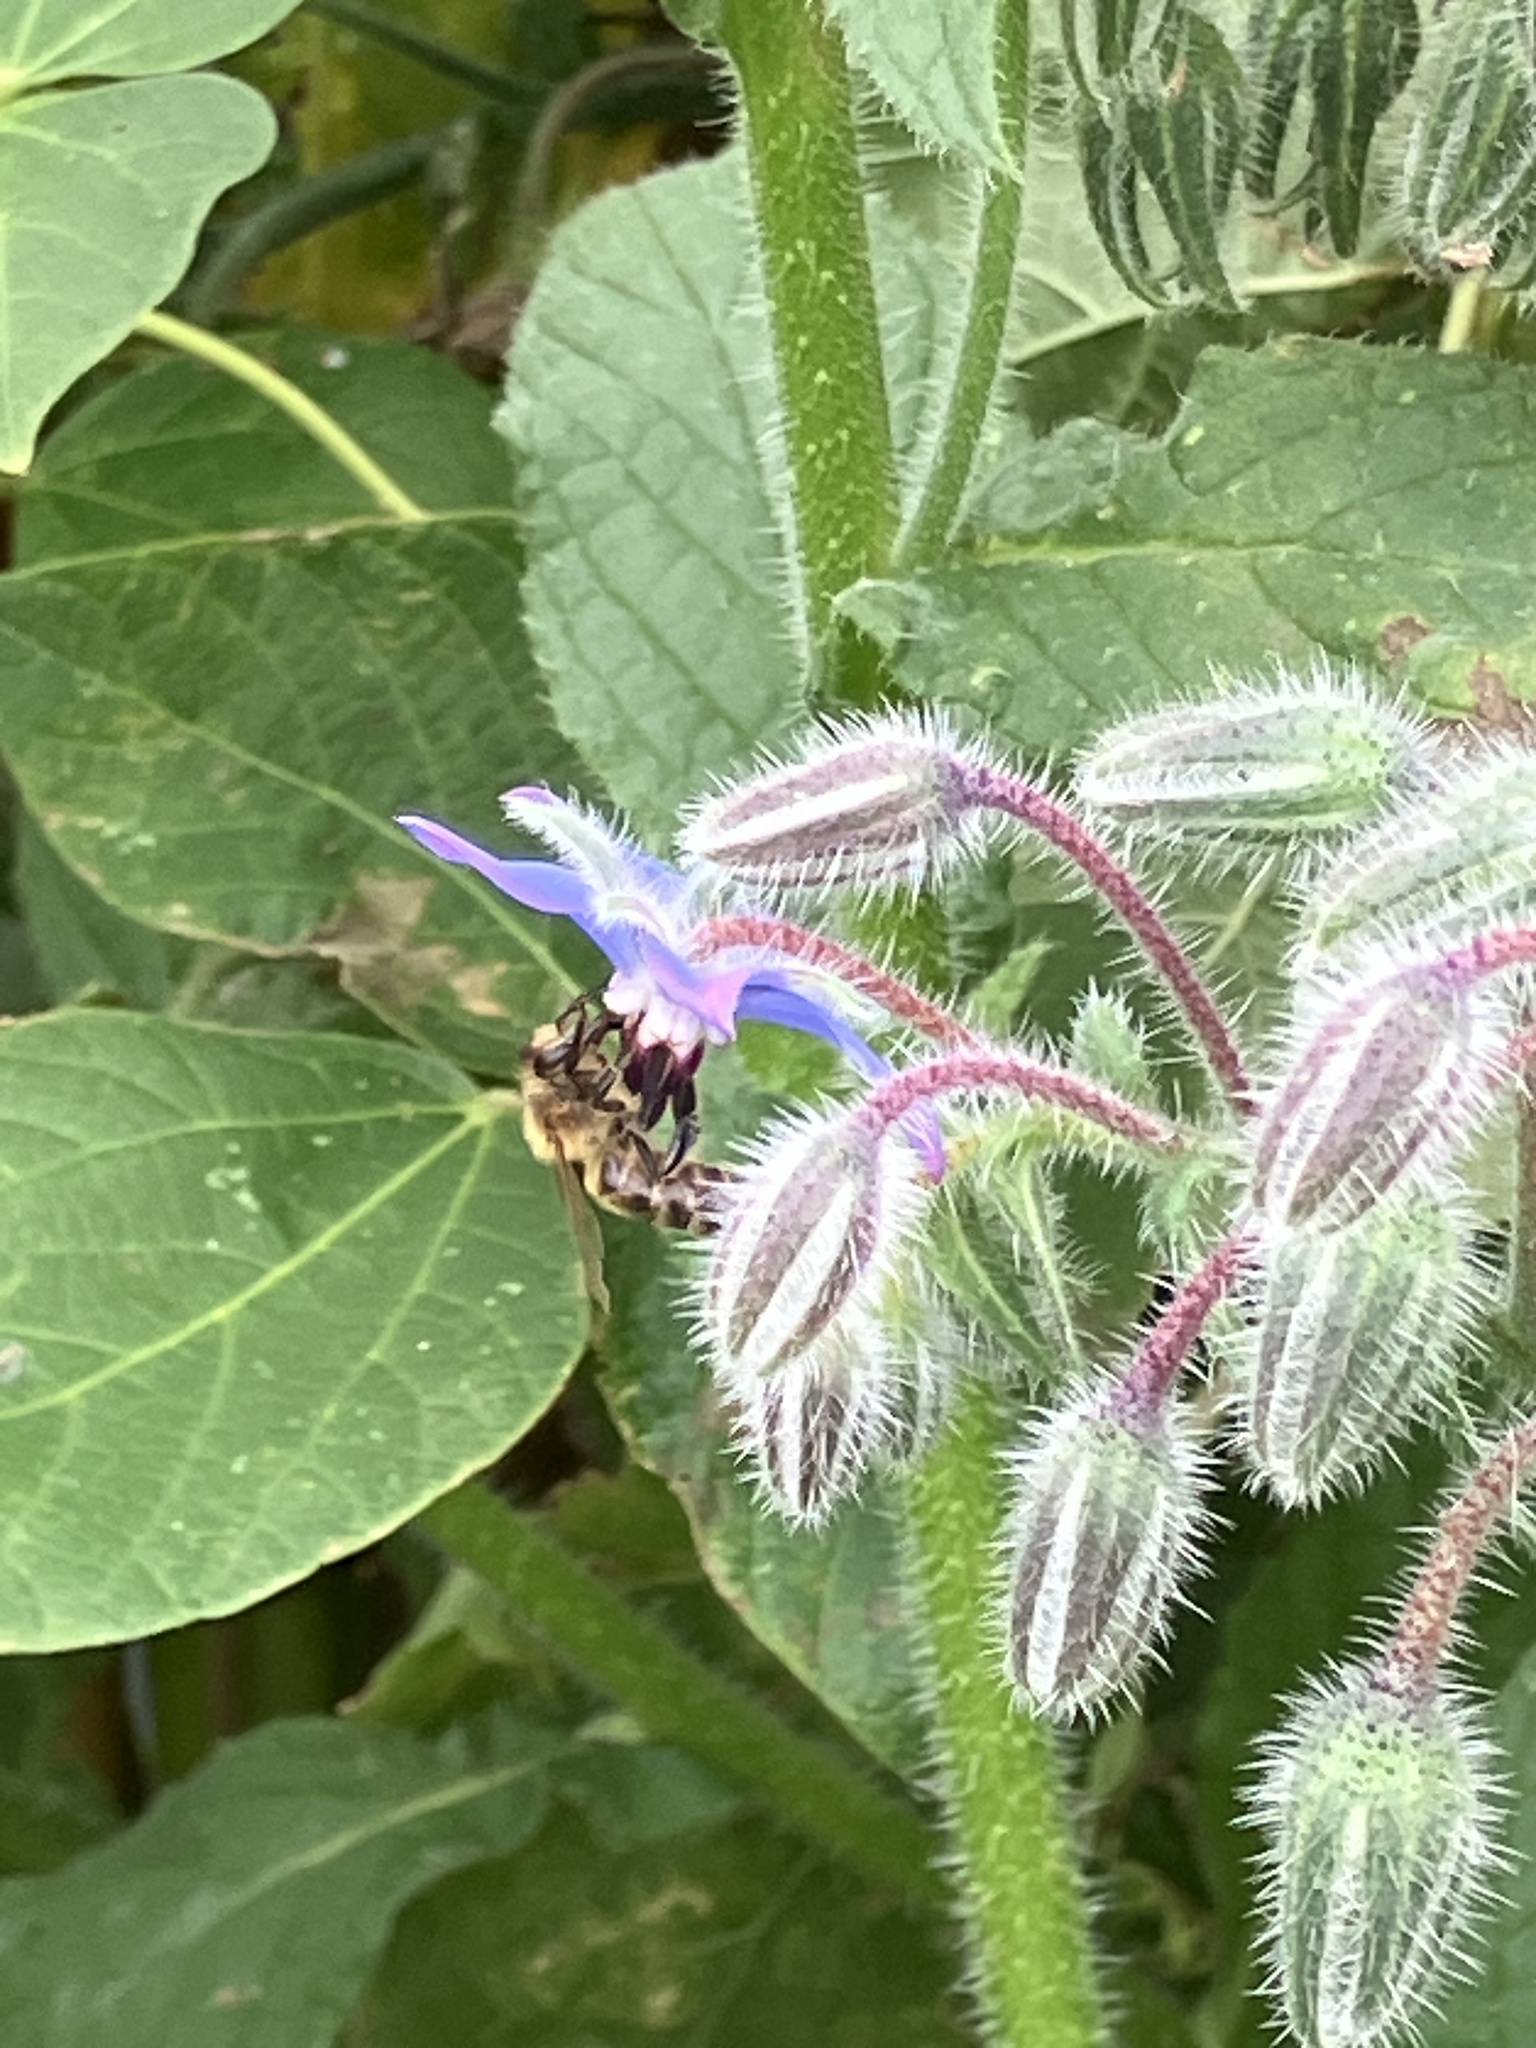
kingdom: Animalia
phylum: Arthropoda
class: Insecta
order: Hymenoptera
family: Apidae
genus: Apis
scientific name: Apis mellifera
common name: Honey bee
